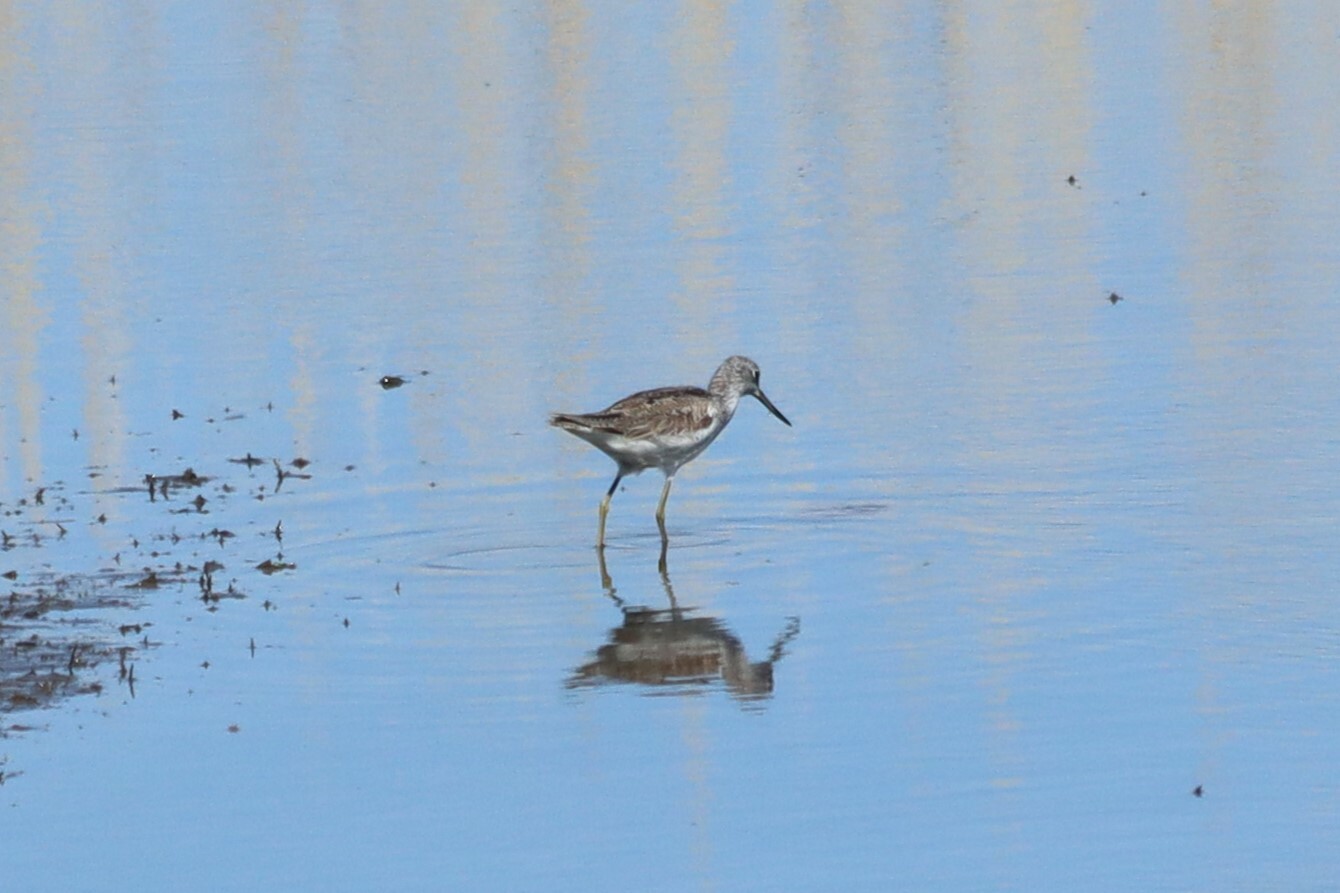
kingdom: Animalia
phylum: Chordata
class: Aves
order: Charadriiformes
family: Scolopacidae
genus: Tringa
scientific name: Tringa nebularia
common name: Common greenshank
